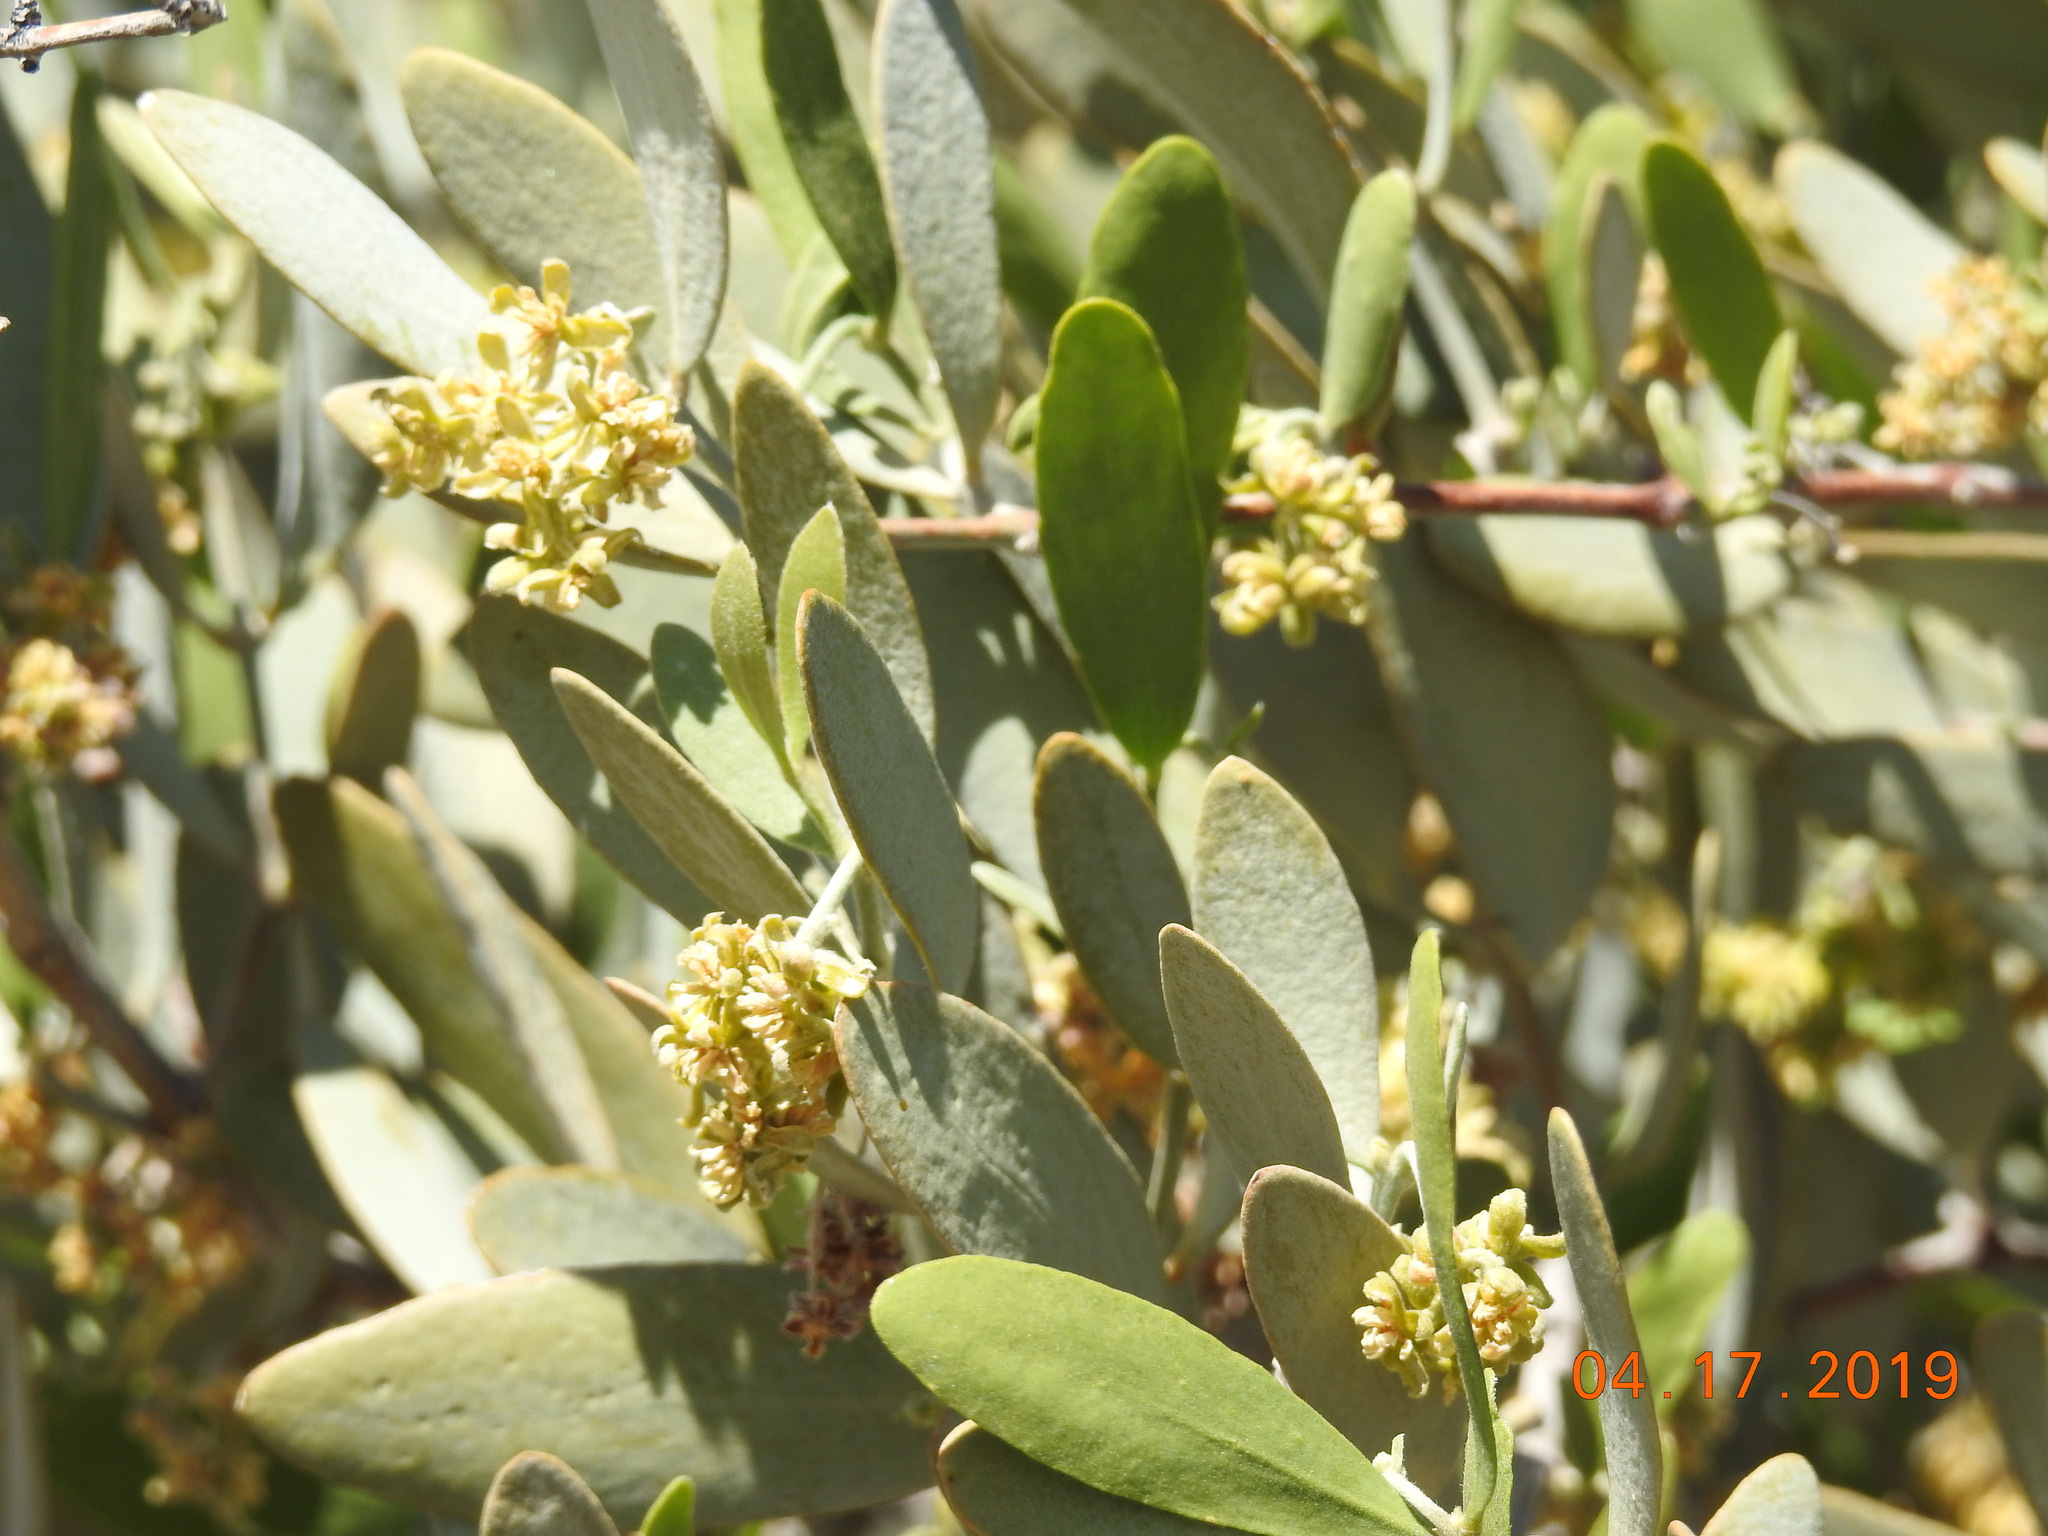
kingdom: Plantae
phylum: Tracheophyta
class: Magnoliopsida
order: Caryophyllales
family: Simmondsiaceae
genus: Simmondsia
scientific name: Simmondsia chinensis
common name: Jojoba
